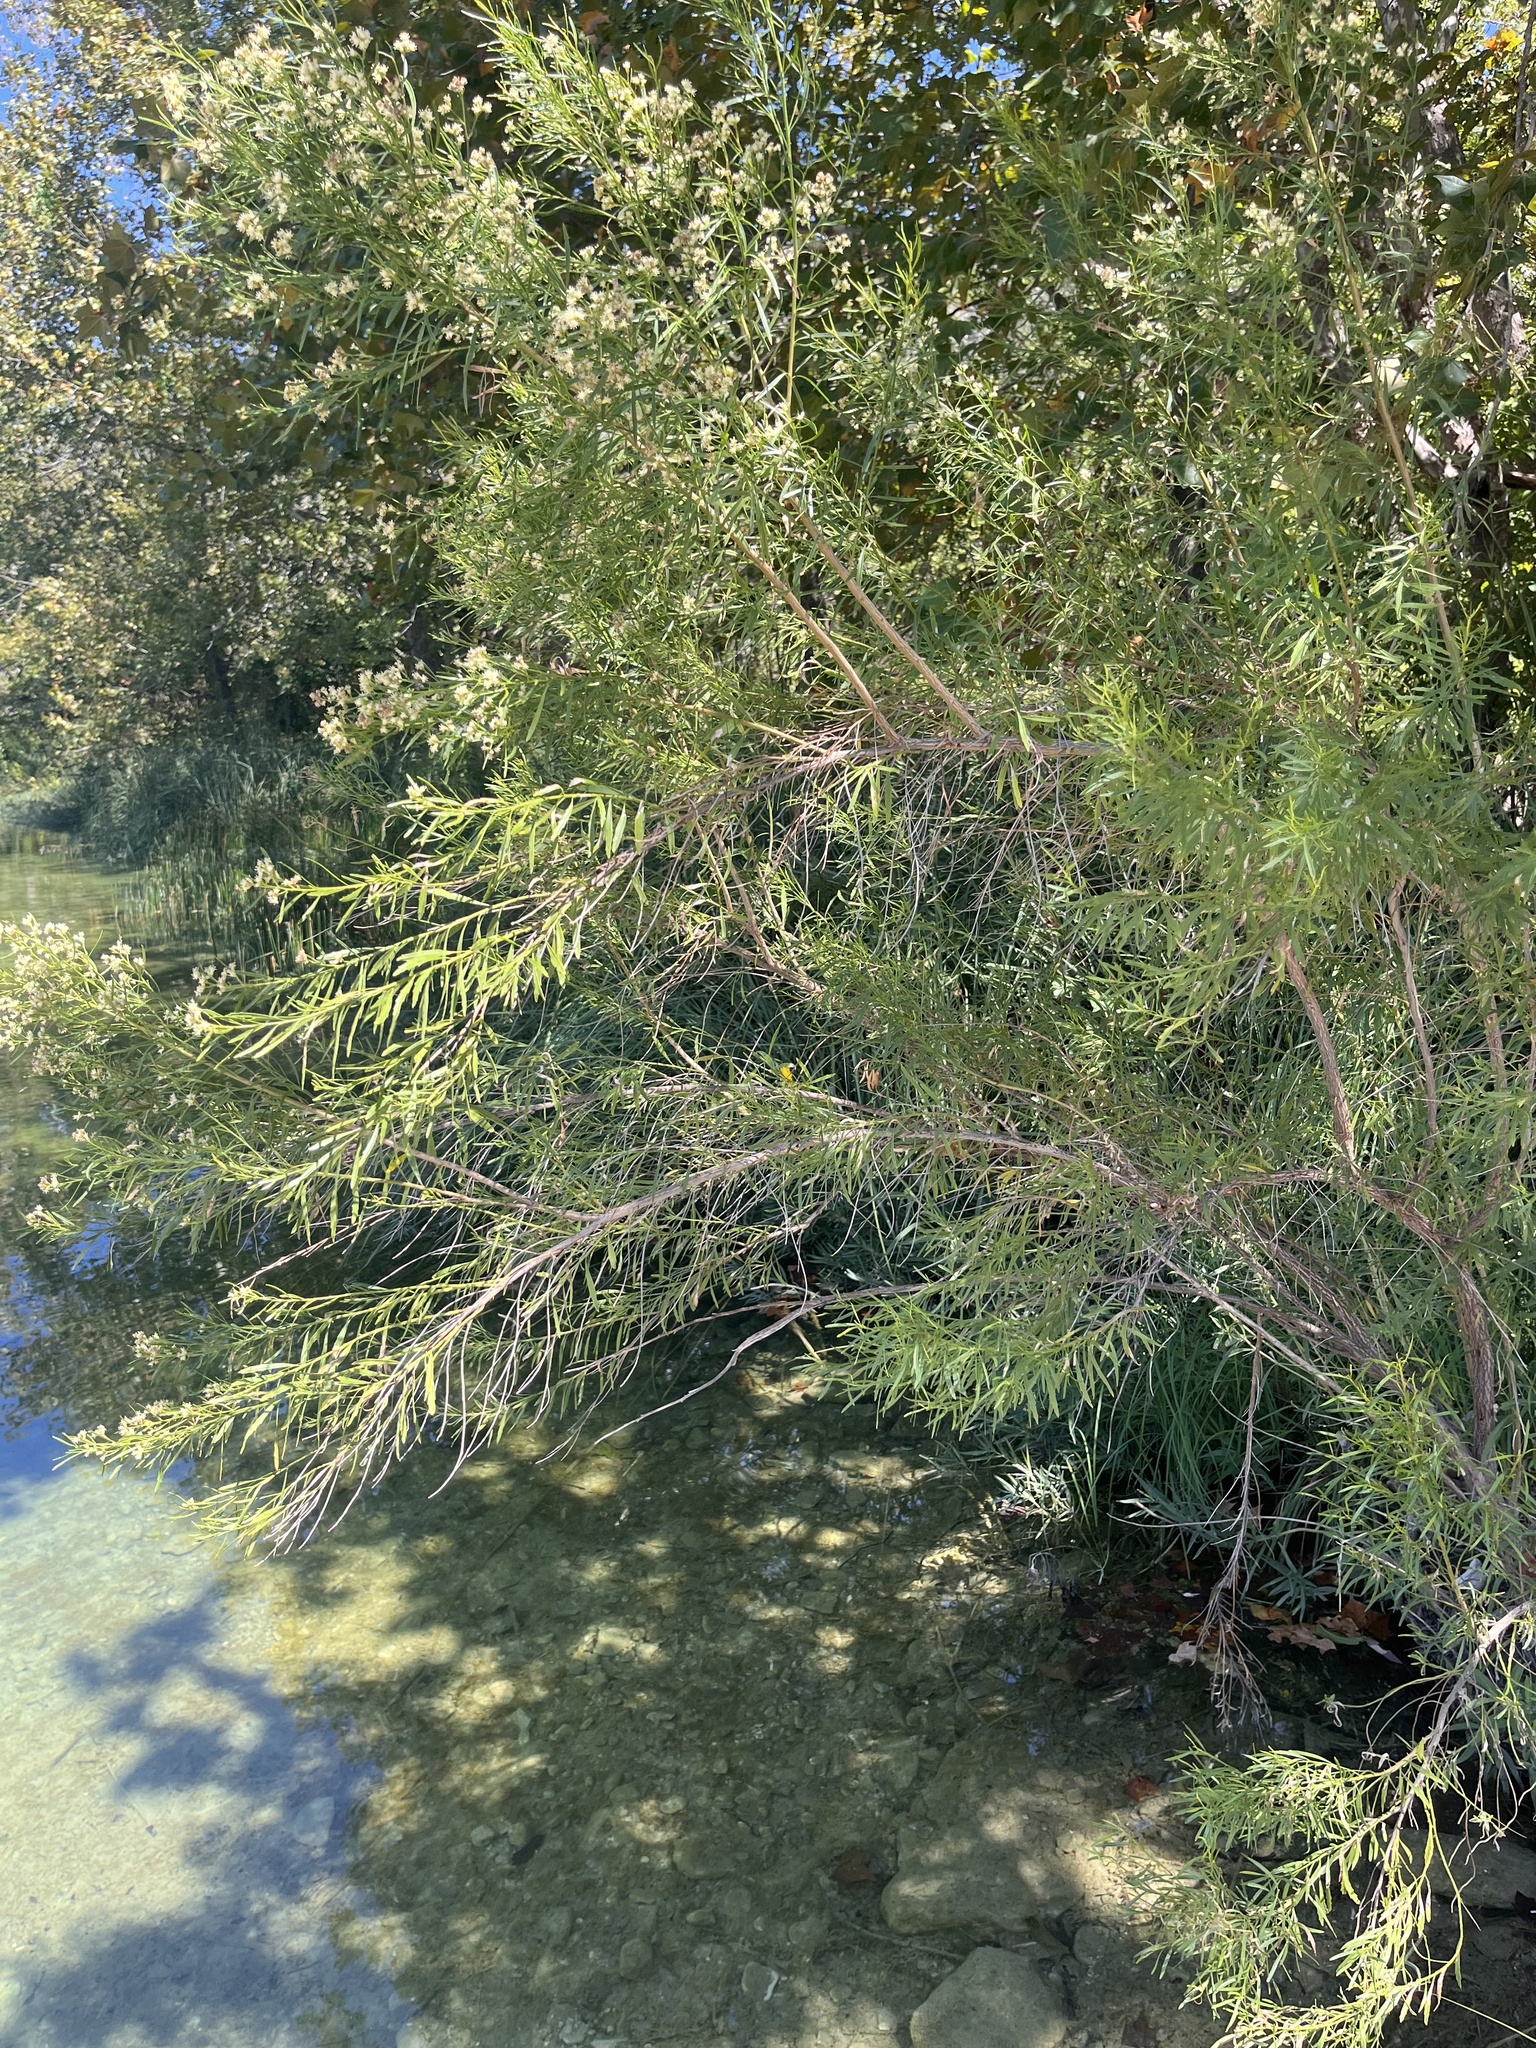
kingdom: Plantae
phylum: Tracheophyta
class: Magnoliopsida
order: Asterales
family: Asteraceae
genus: Baccharis
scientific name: Baccharis neglecta
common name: Roosevelt-weed
